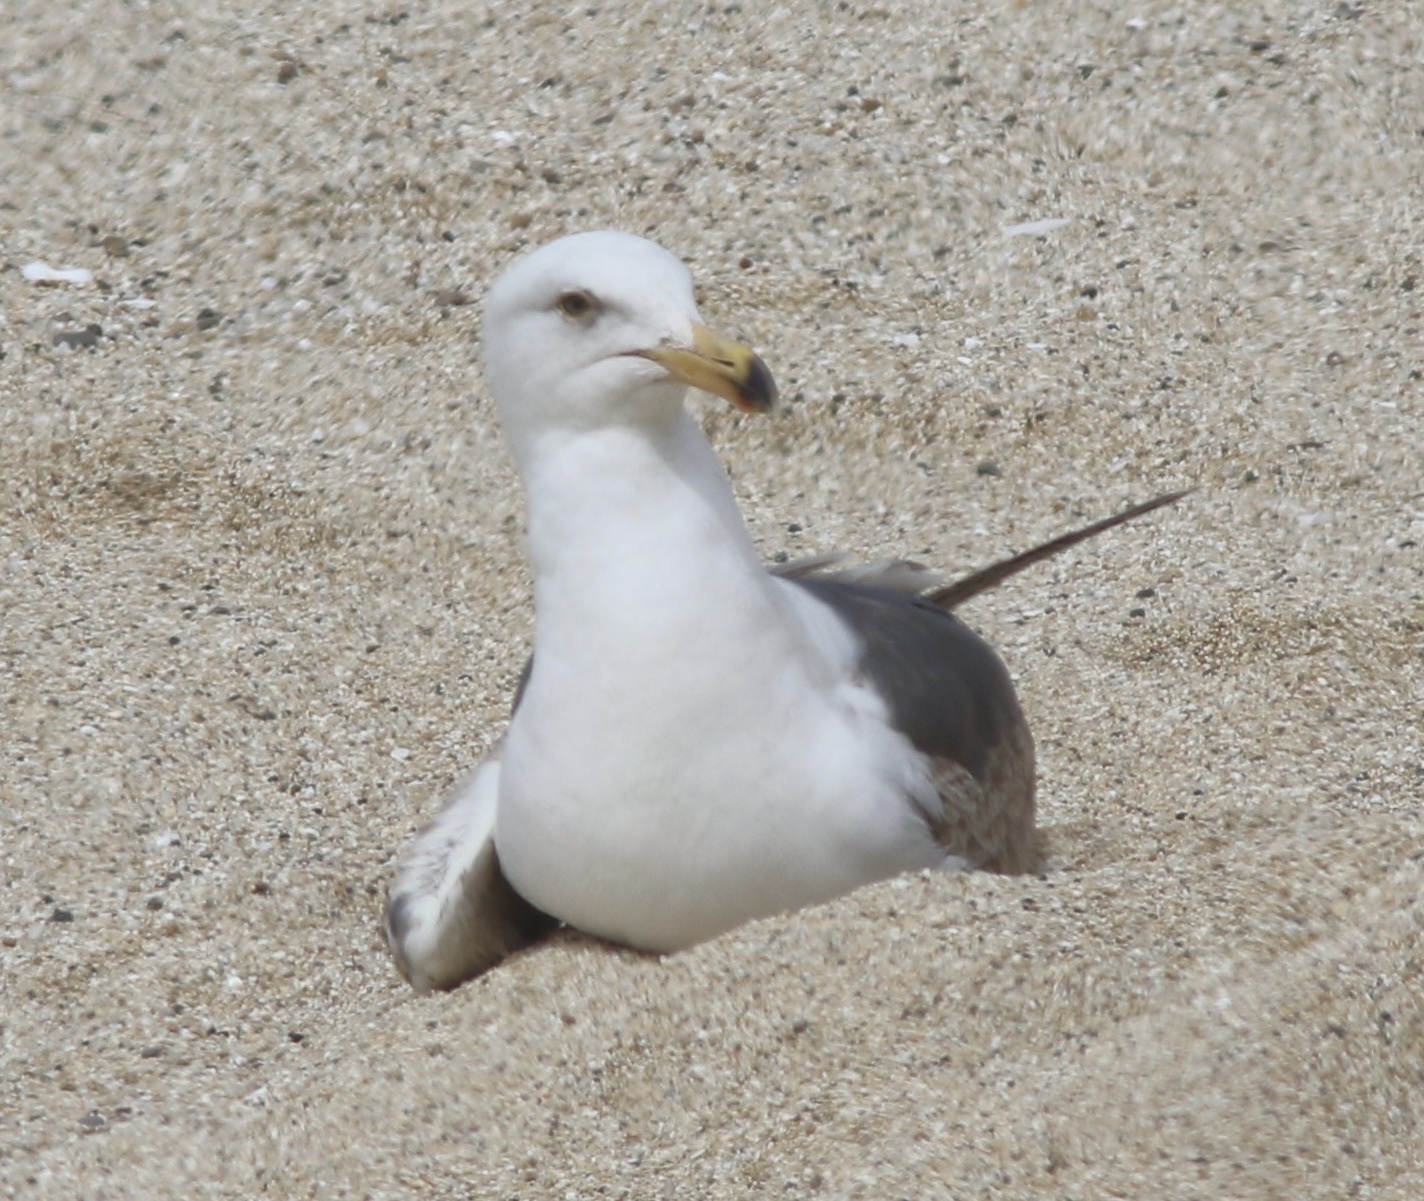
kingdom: Animalia
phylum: Chordata
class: Aves
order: Charadriiformes
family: Laridae
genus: Larus
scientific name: Larus occidentalis
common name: Western gull
